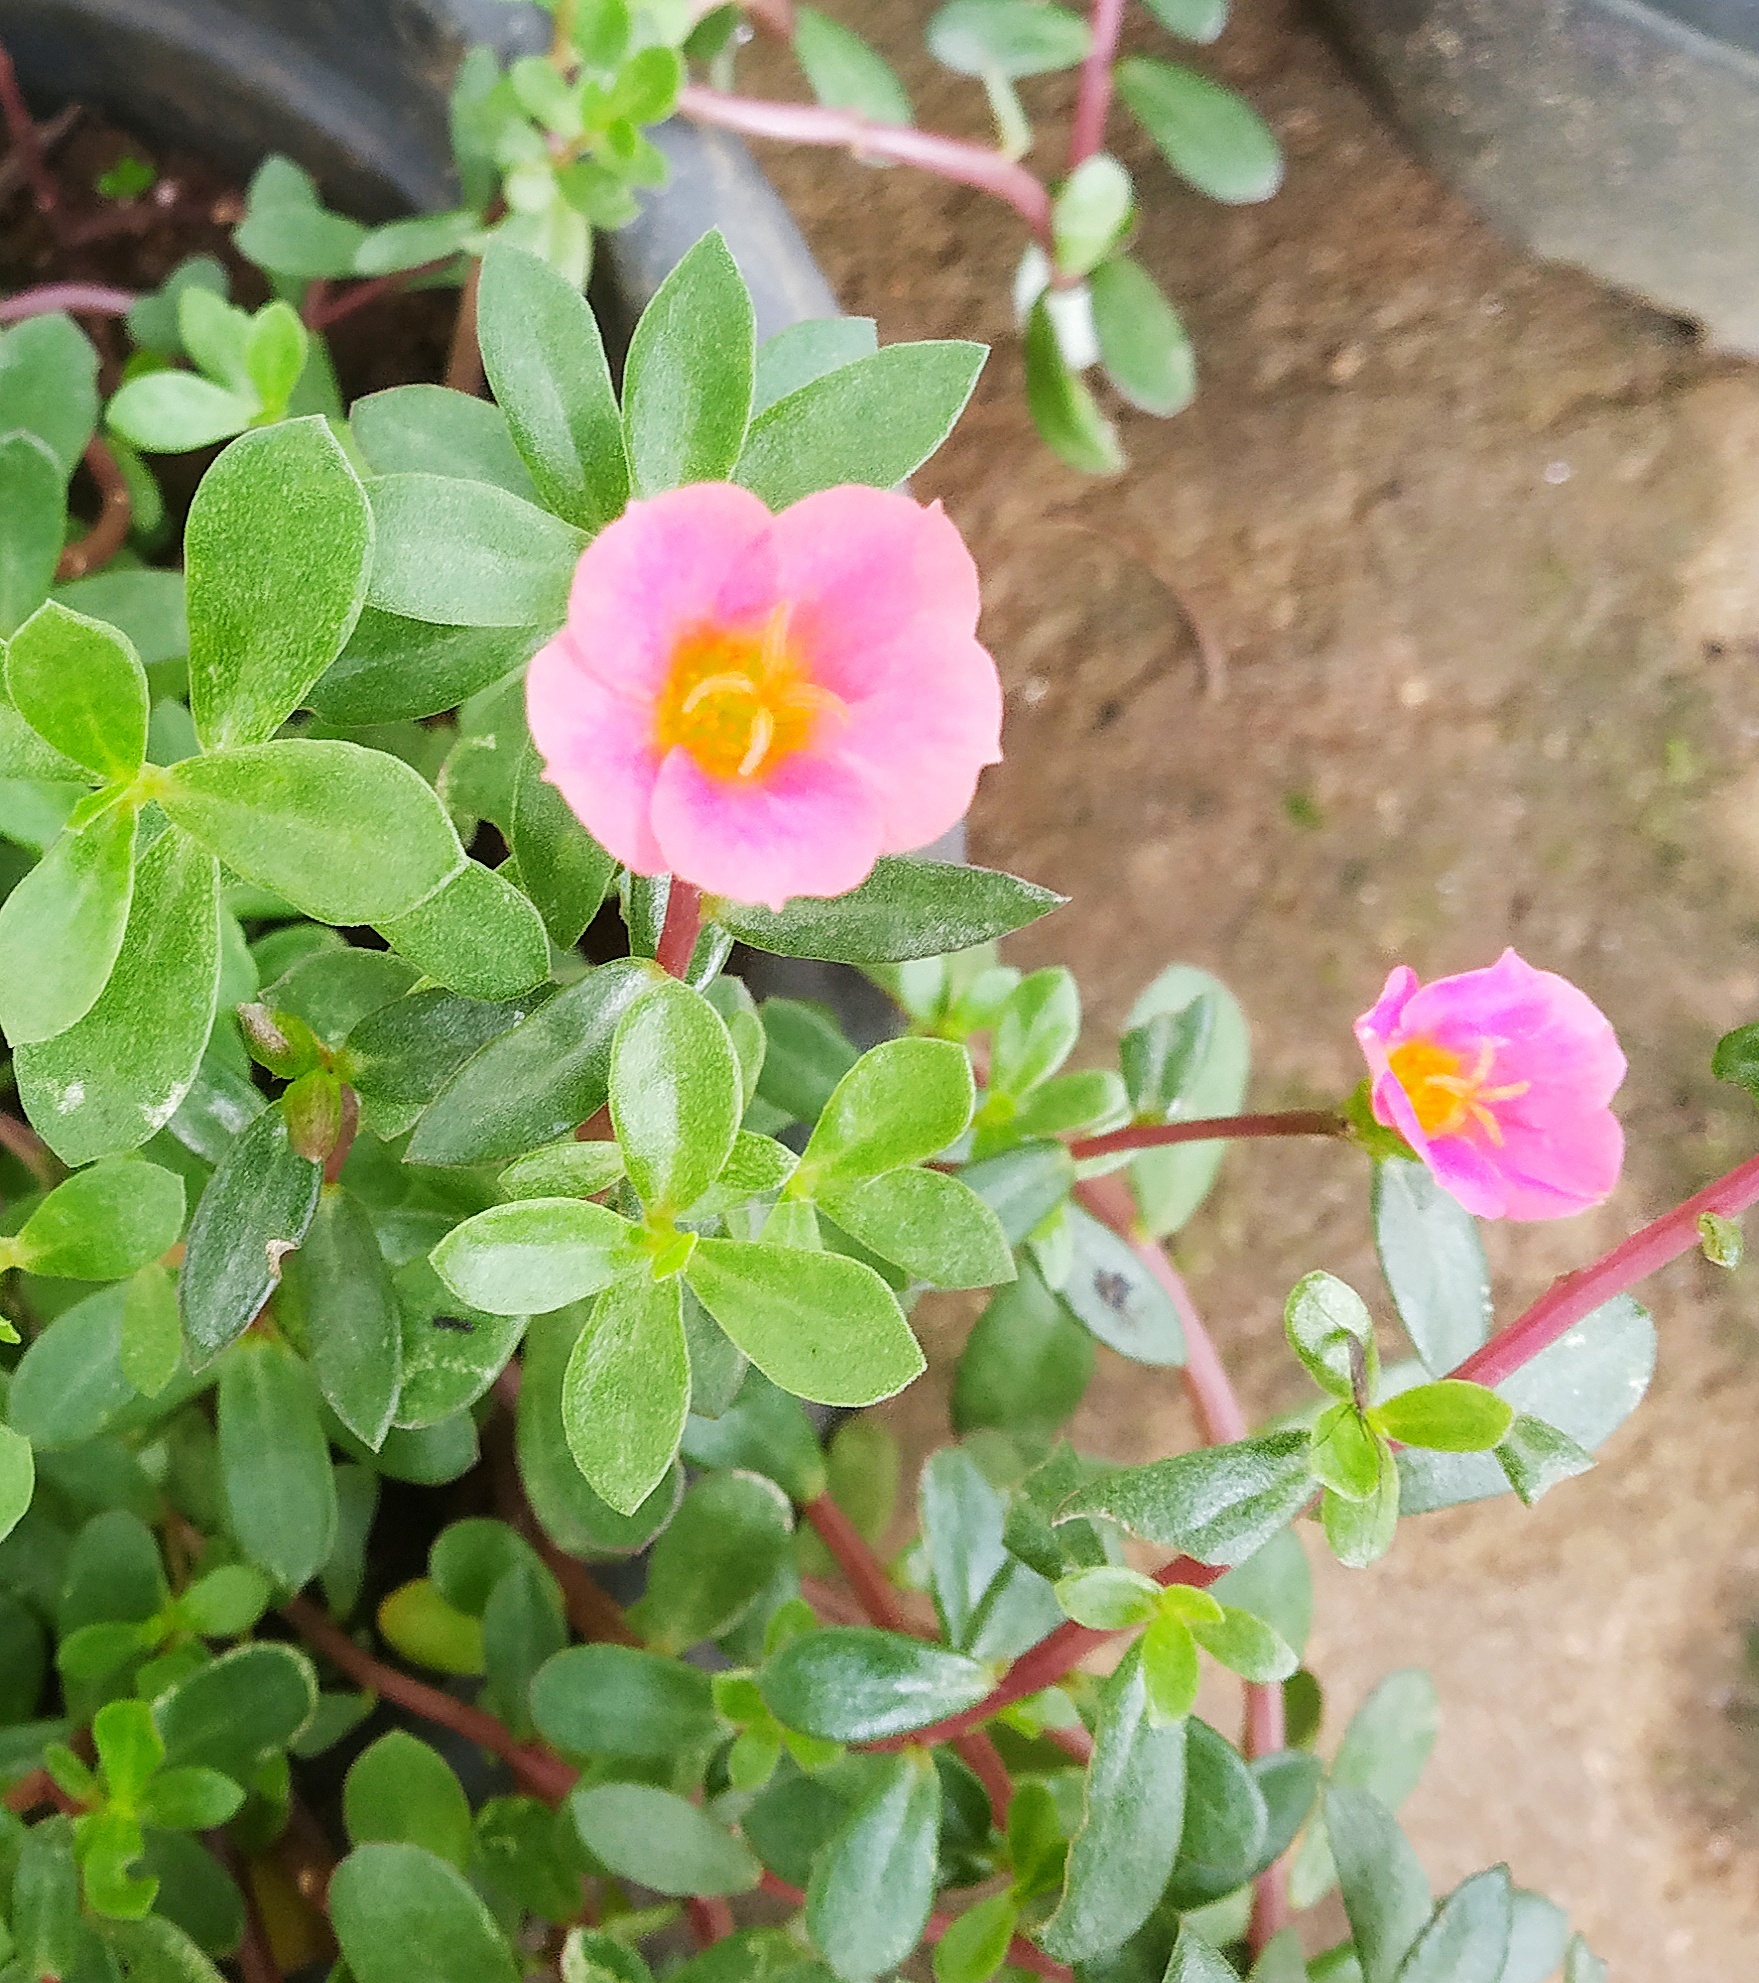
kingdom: Plantae
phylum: Tracheophyta
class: Magnoliopsida
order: Caryophyllales
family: Portulacaceae
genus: Portulaca
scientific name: Portulaca umbraticola
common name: Wingpod purslane
